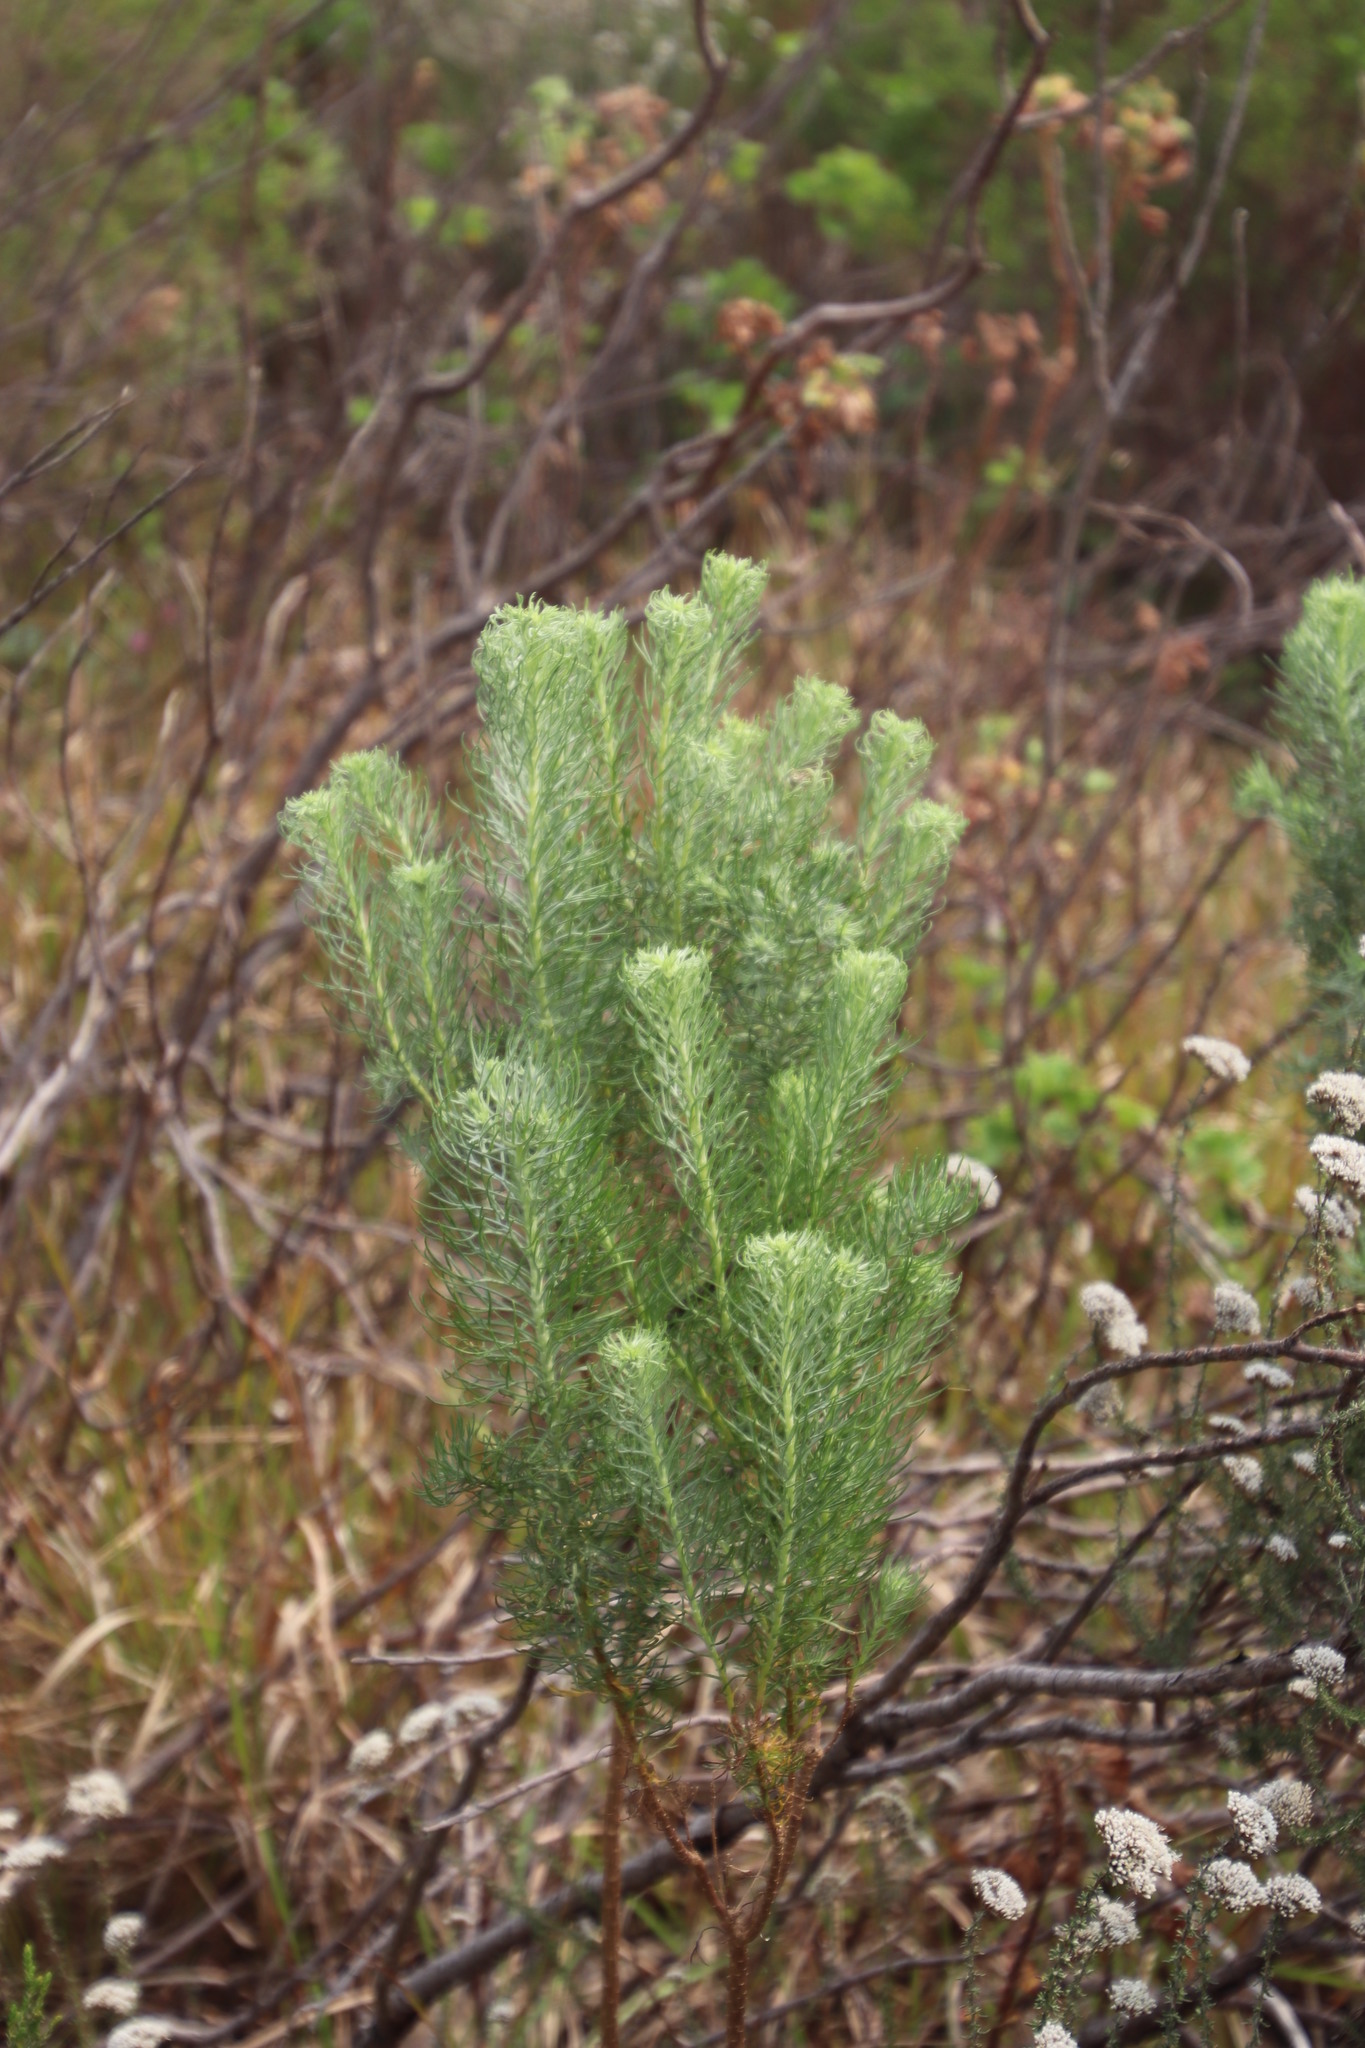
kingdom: Plantae
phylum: Tracheophyta
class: Magnoliopsida
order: Asterales
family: Asteraceae
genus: Athanasia
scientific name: Athanasia crithmifolia
